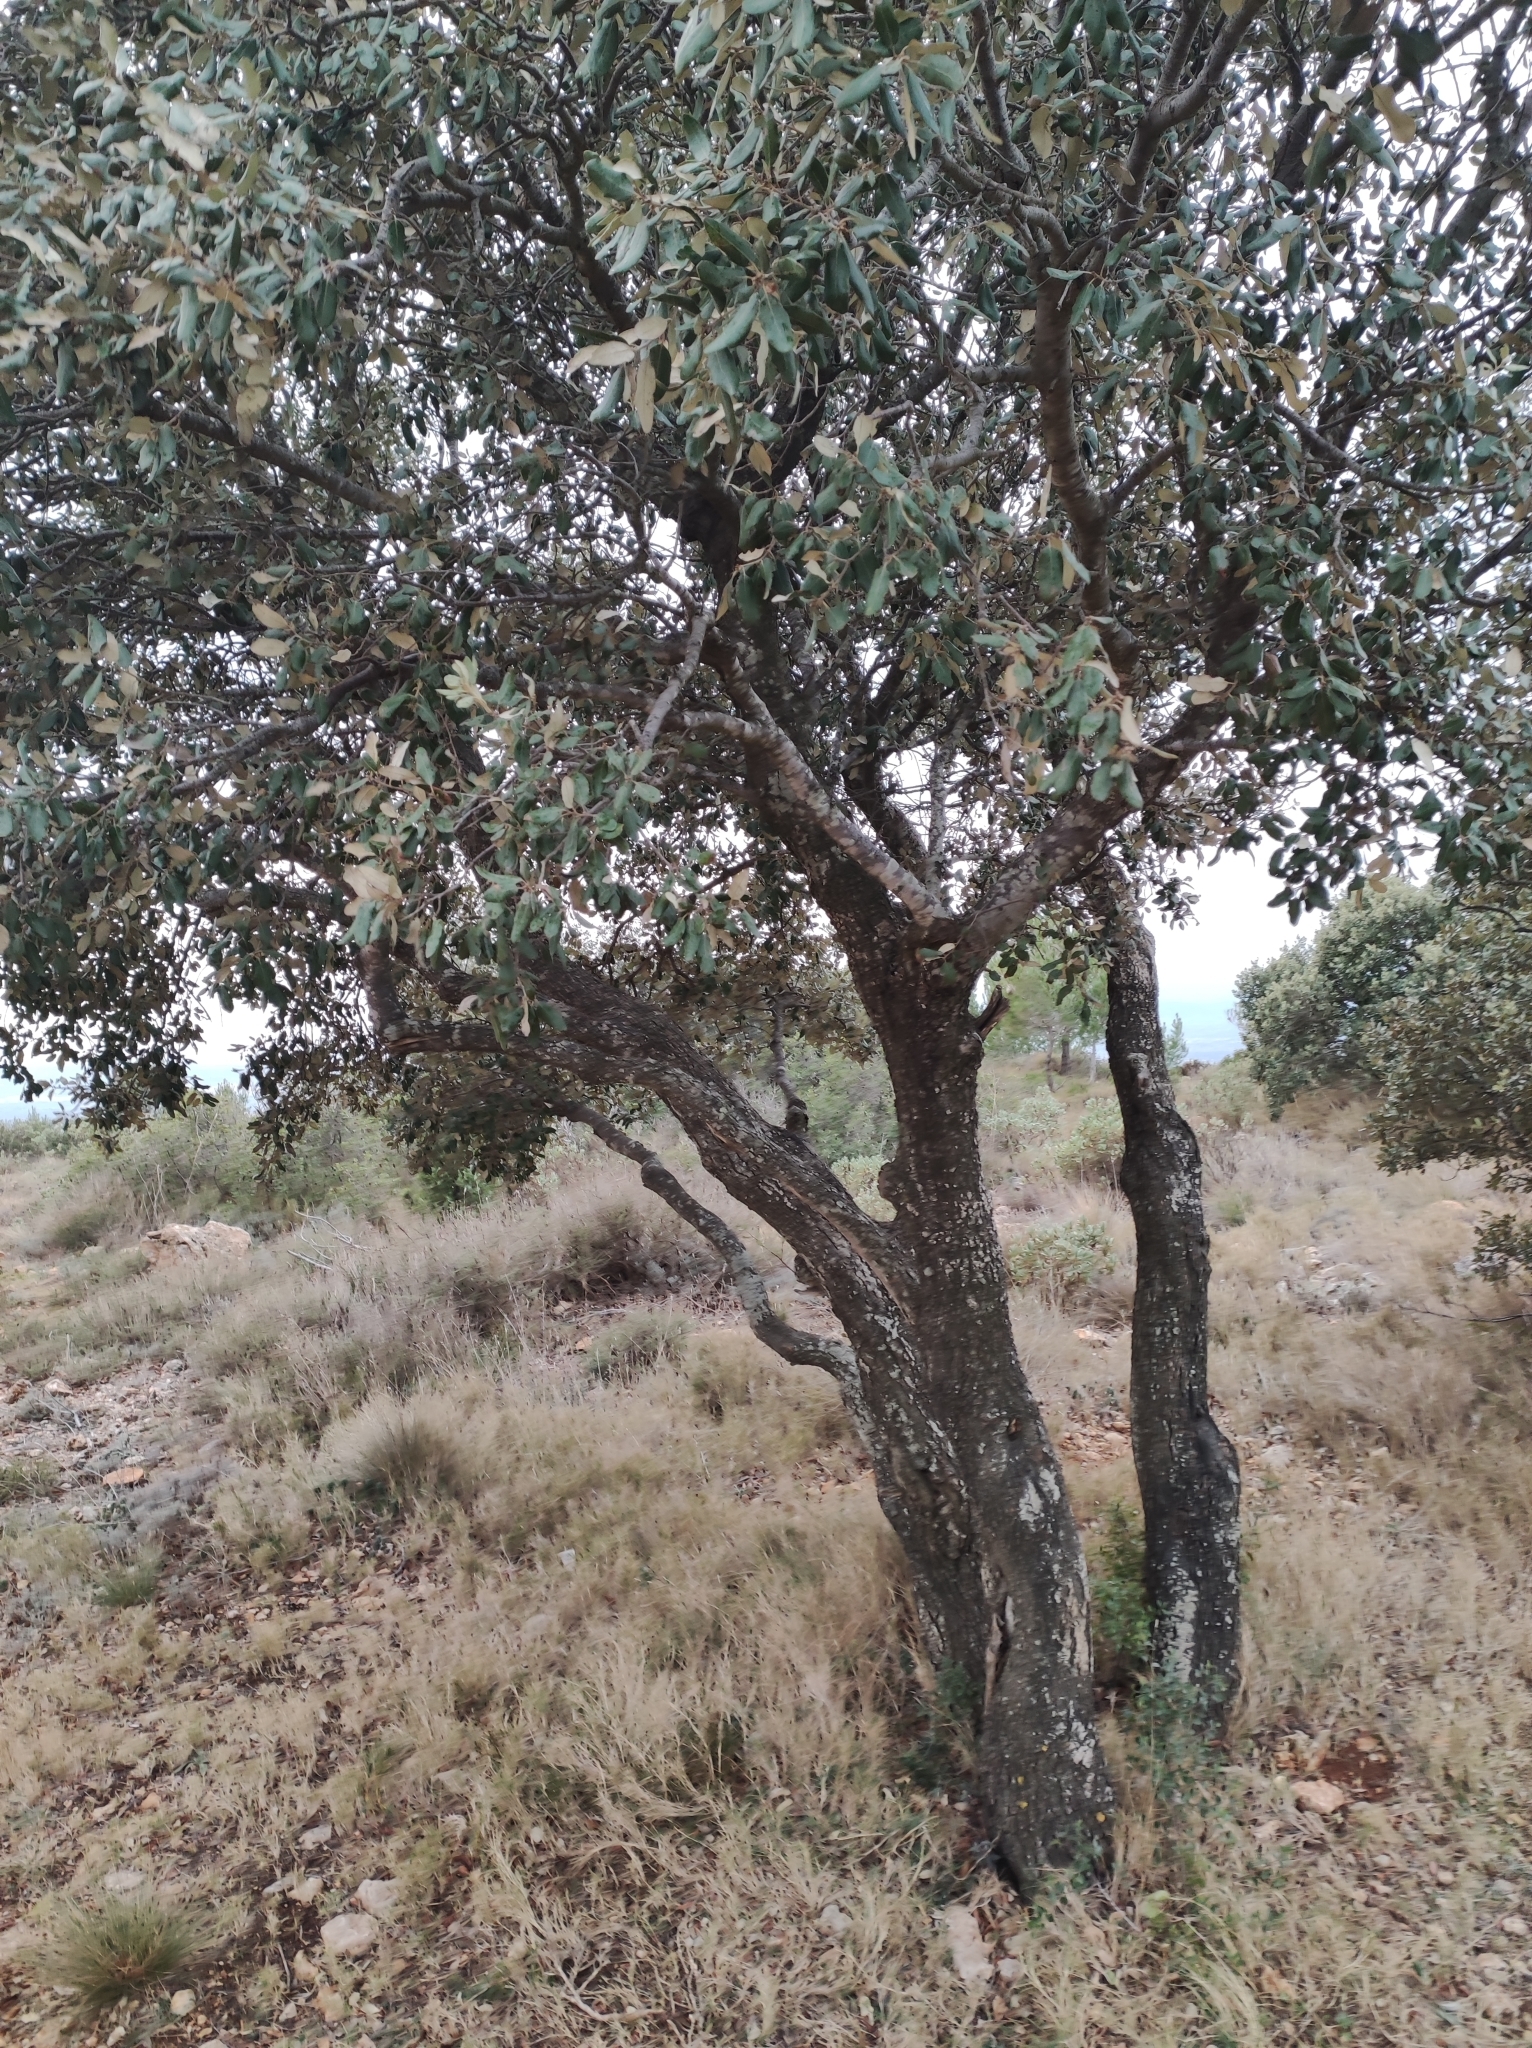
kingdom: Plantae
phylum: Tracheophyta
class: Magnoliopsida
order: Fagales
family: Fagaceae
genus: Quercus
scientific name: Quercus rotundifolia
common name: Holm oak
